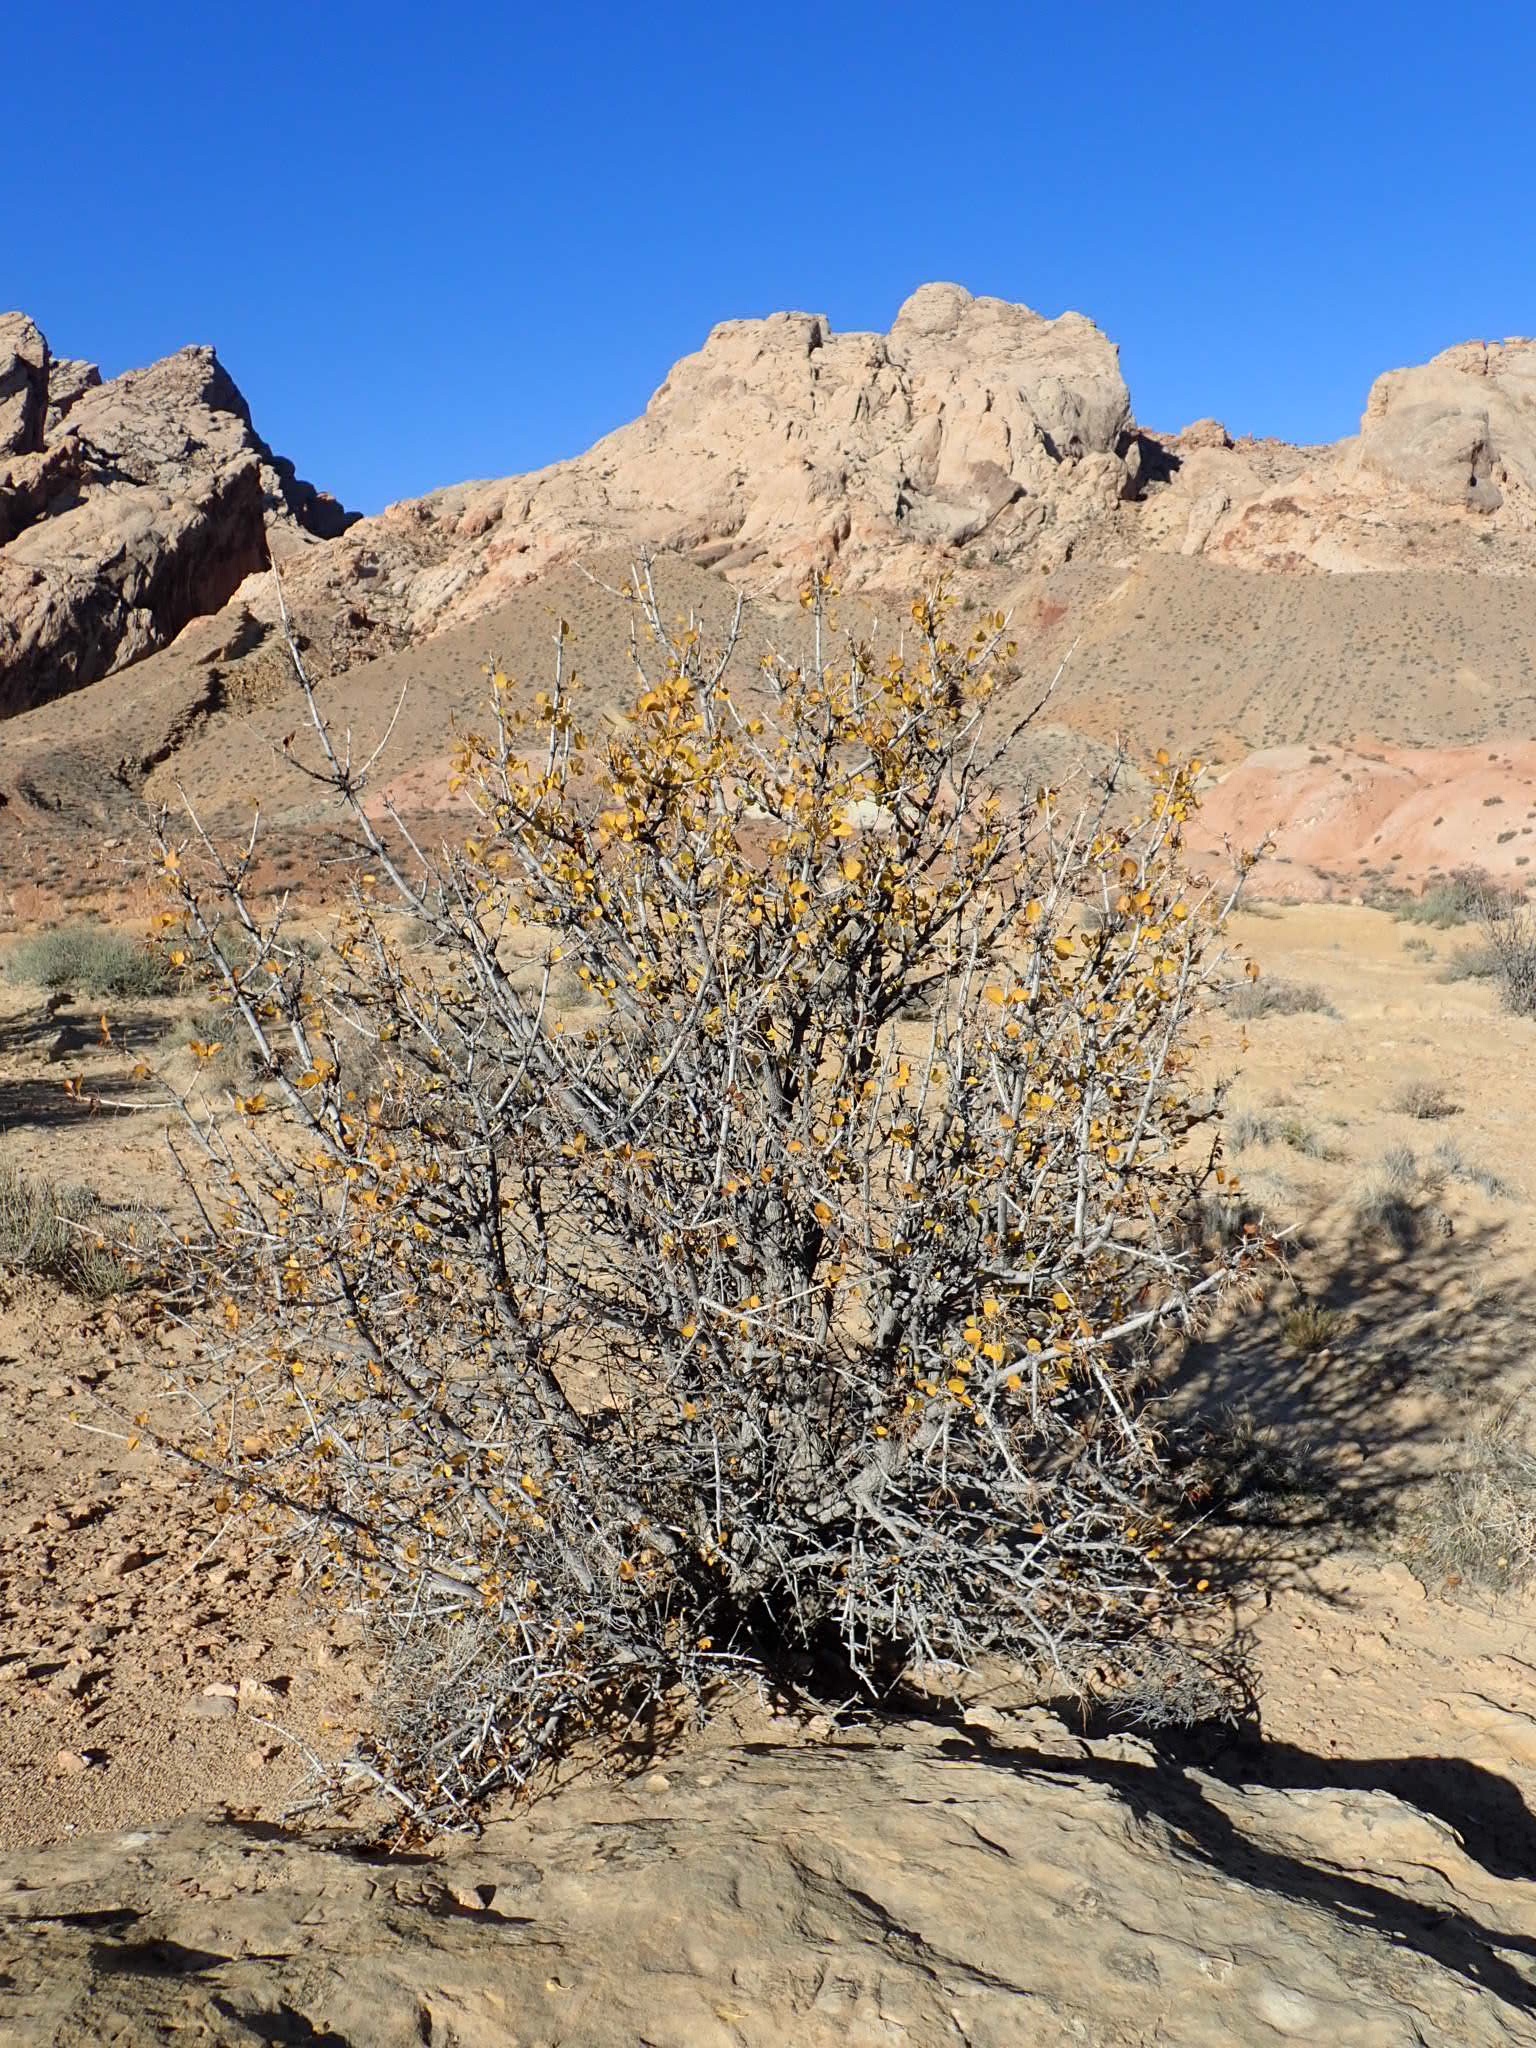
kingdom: Plantae
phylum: Tracheophyta
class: Magnoliopsida
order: Lamiales
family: Oleaceae
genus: Fraxinus
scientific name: Fraxinus anomala
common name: Utah ash
